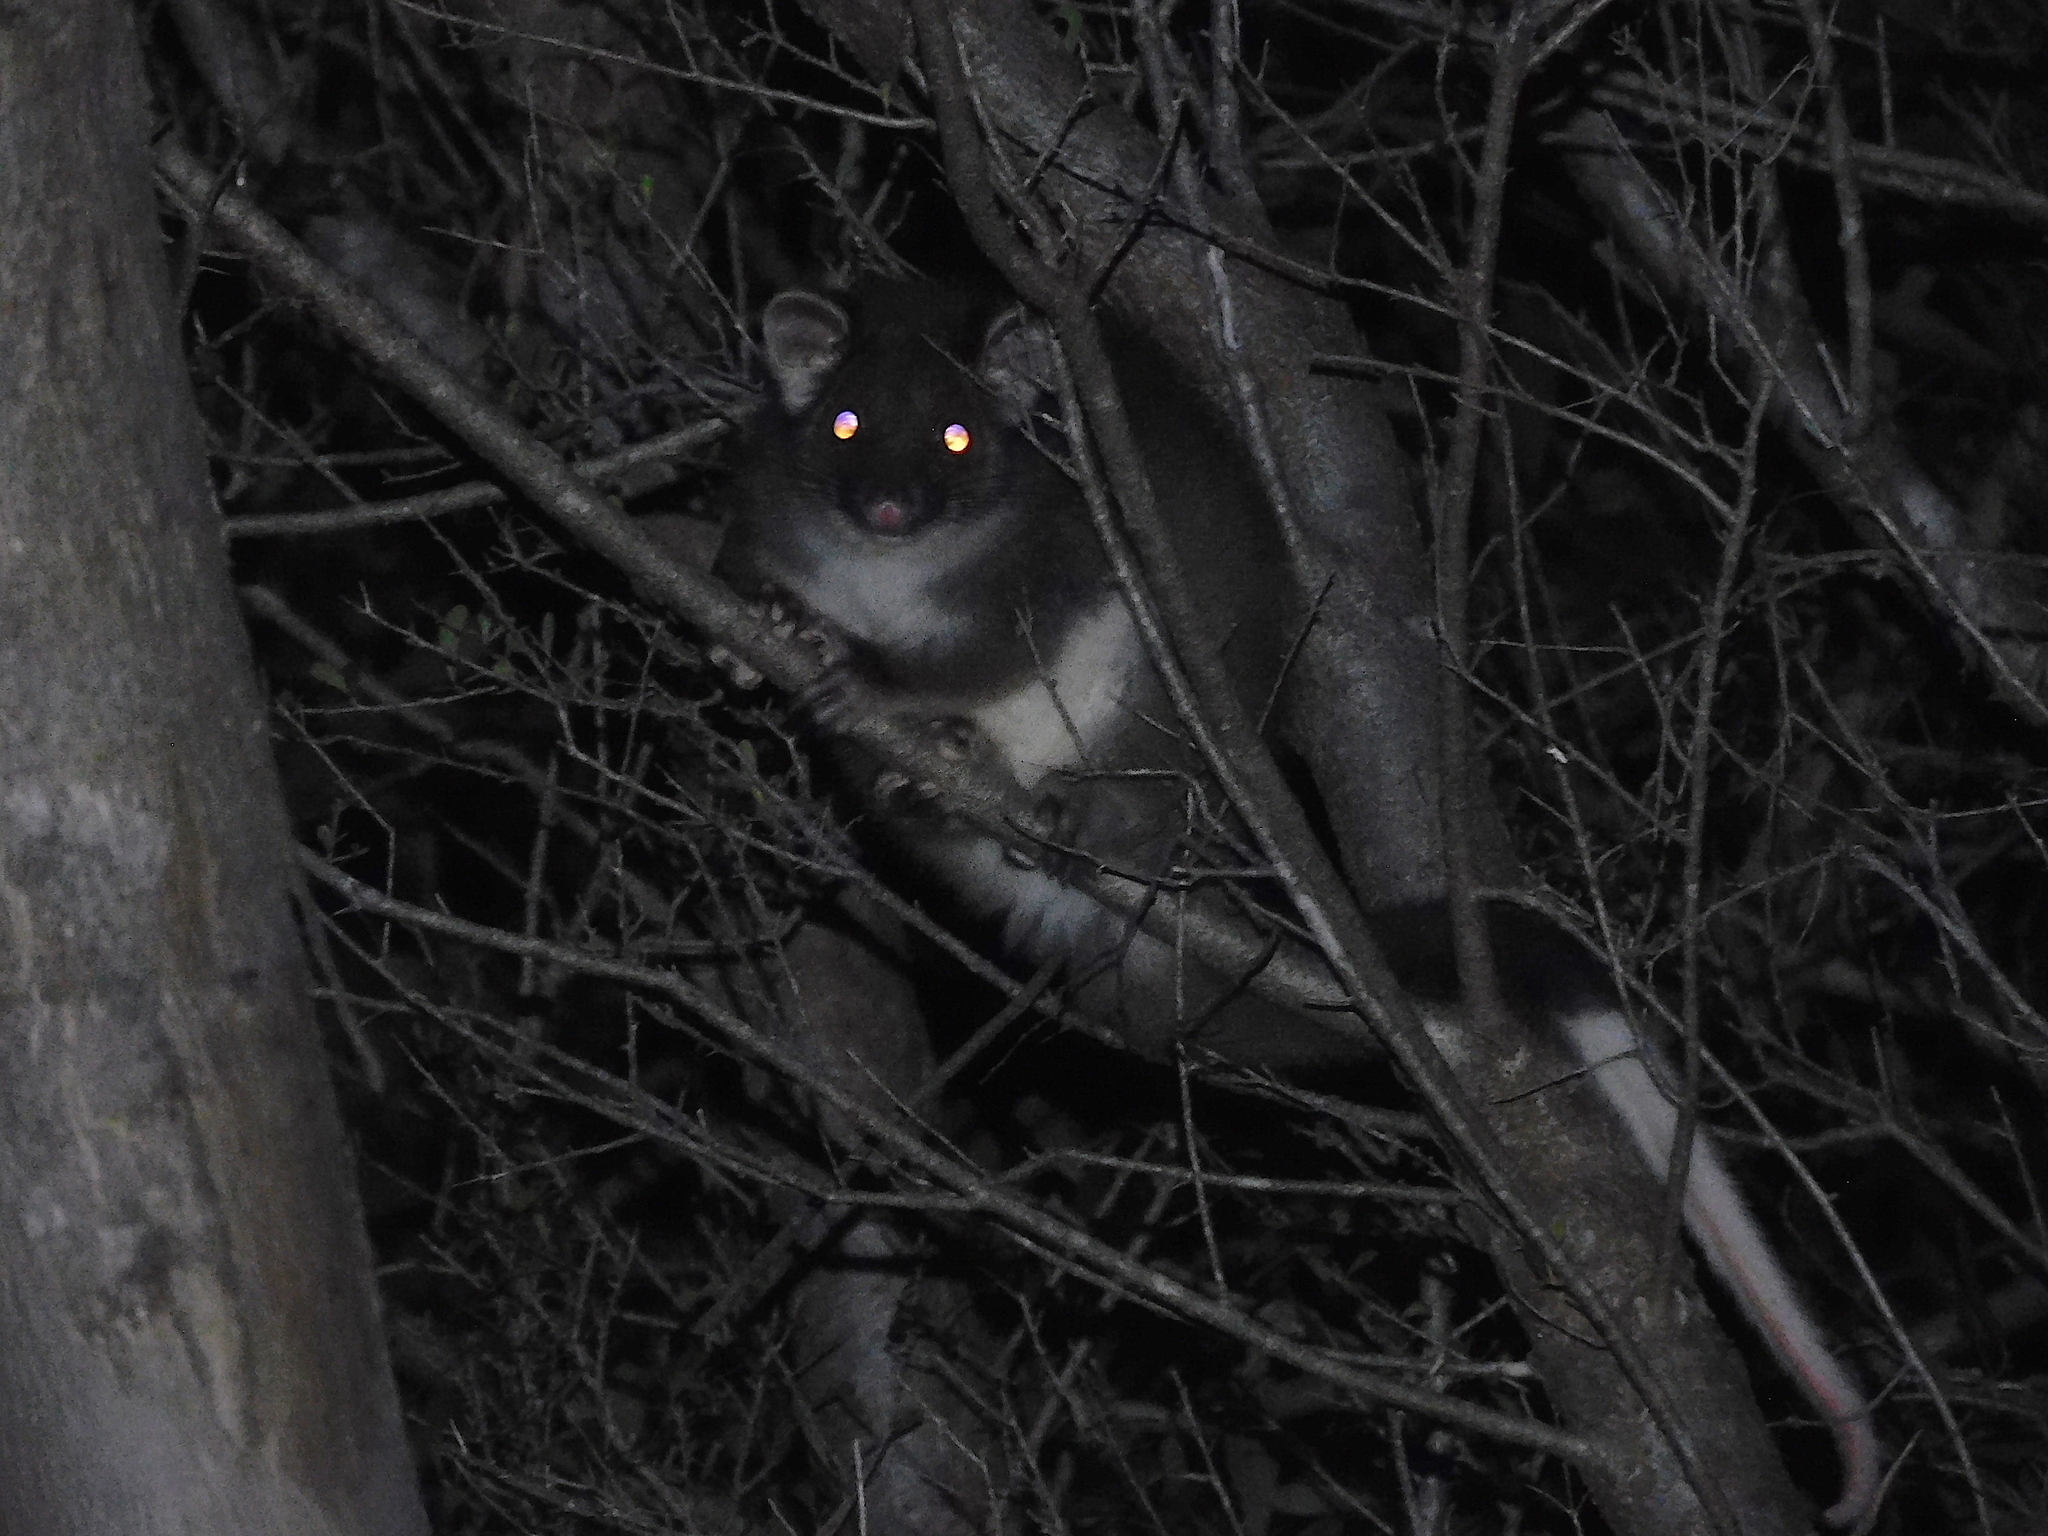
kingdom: Animalia
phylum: Chordata
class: Mammalia
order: Diprotodontia
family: Pseudocheiridae
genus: Pseudocheirus
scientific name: Pseudocheirus peregrinus
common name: Common ringtail possum
